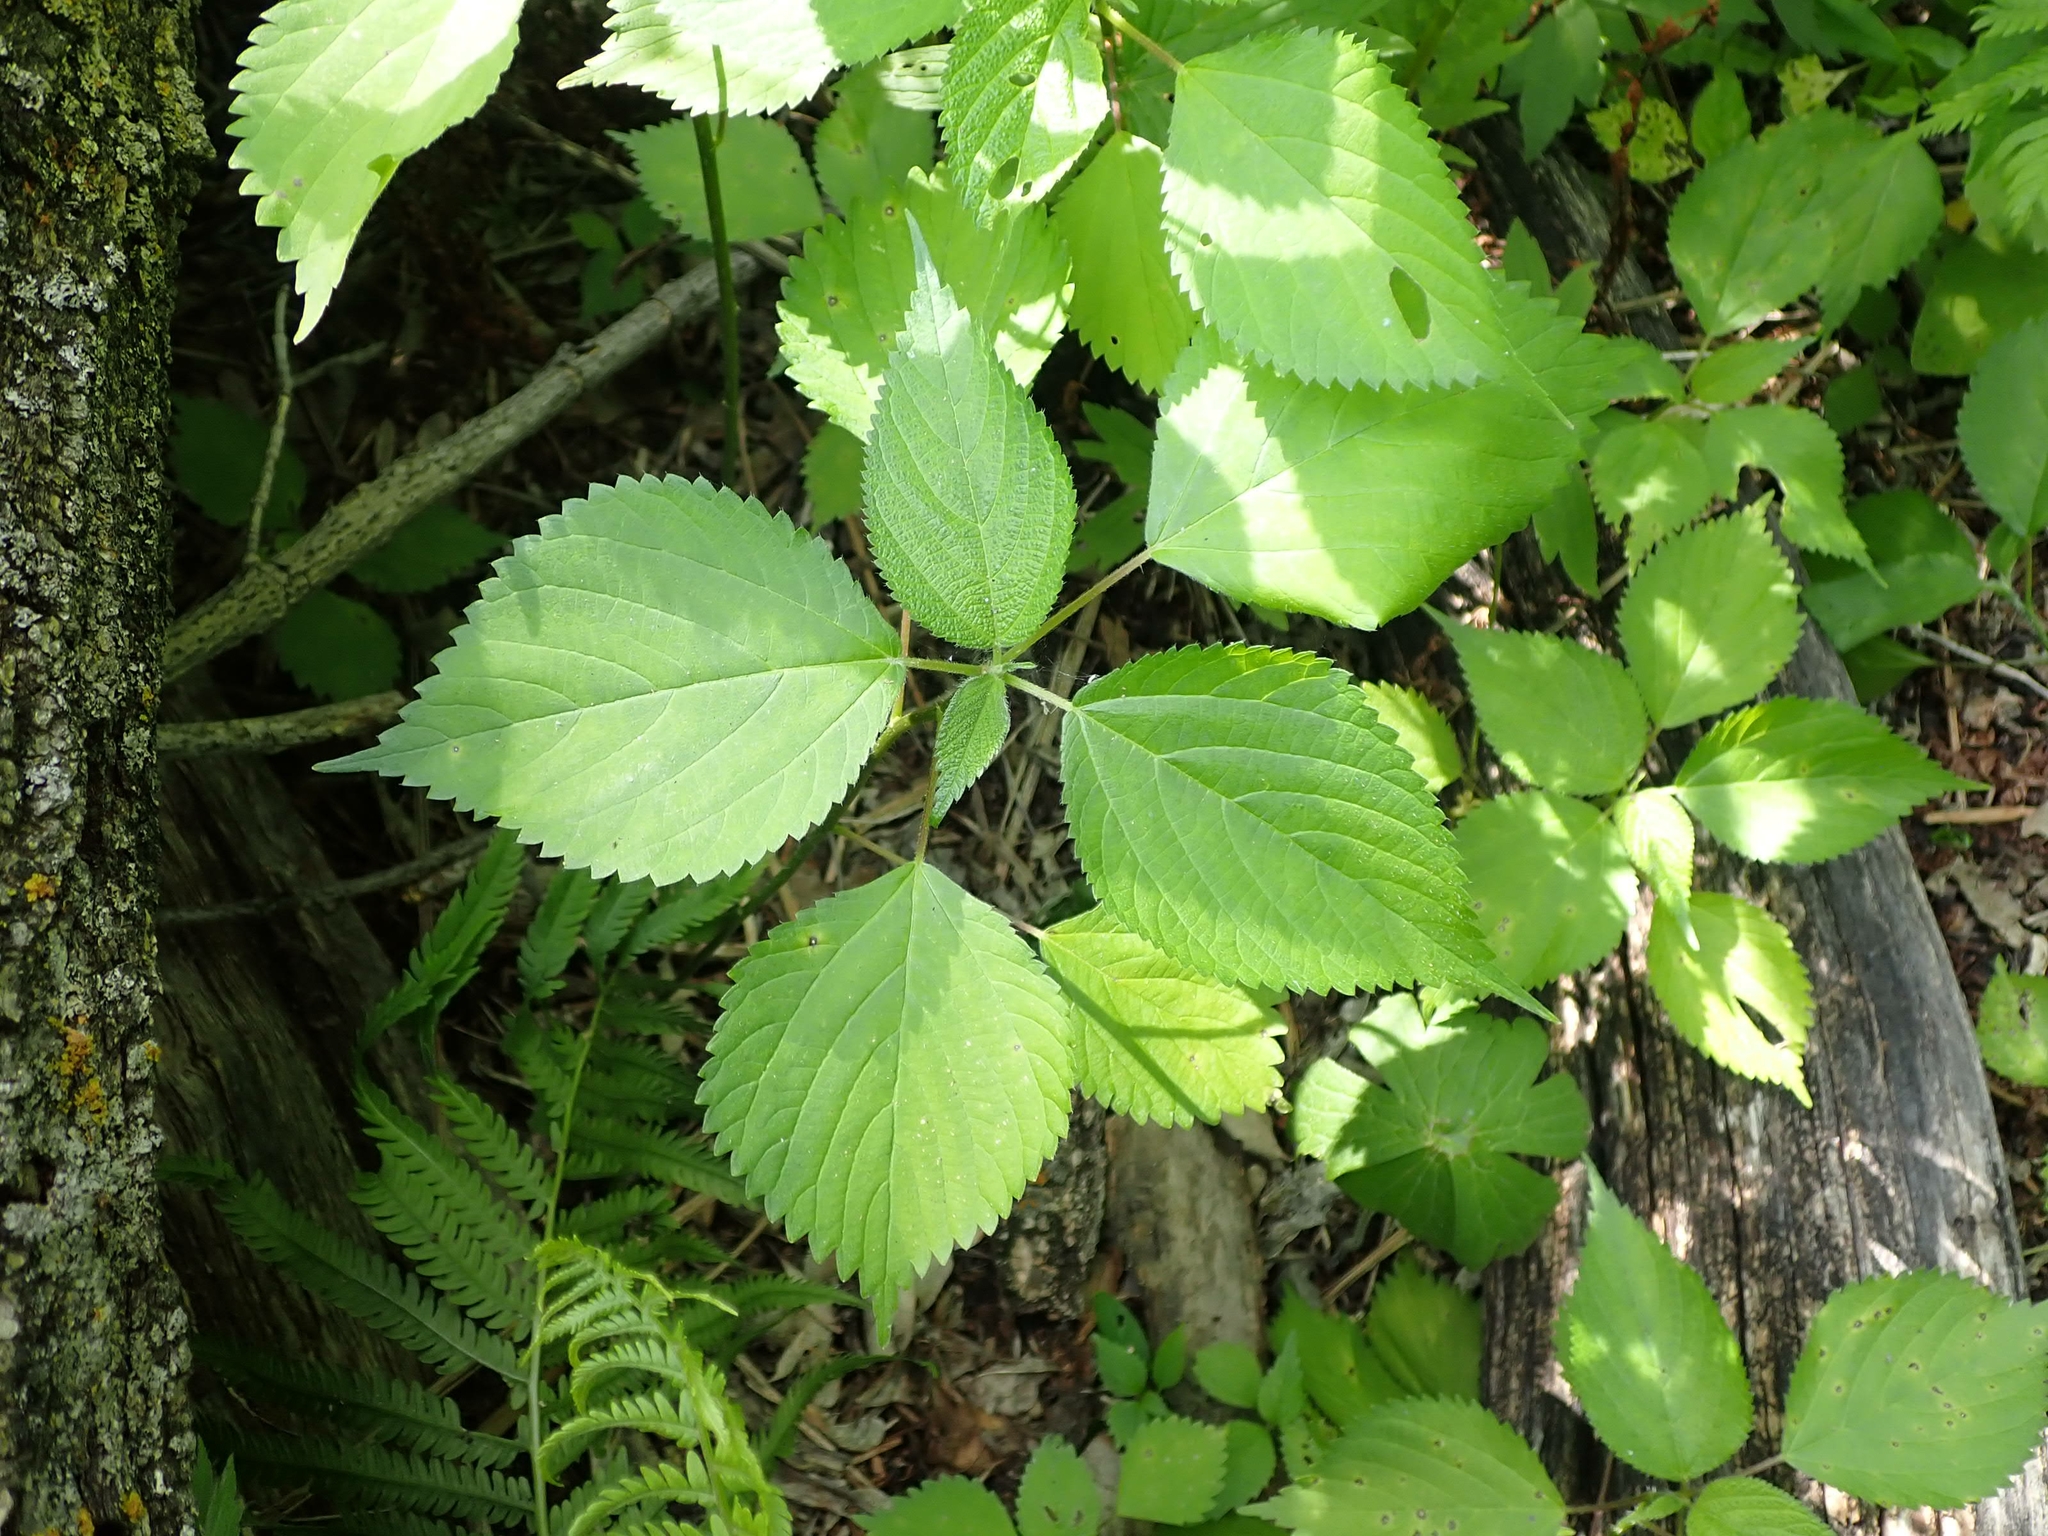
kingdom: Plantae
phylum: Tracheophyta
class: Magnoliopsida
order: Rosales
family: Urticaceae
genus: Laportea
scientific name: Laportea canadensis
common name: Canada nettle
